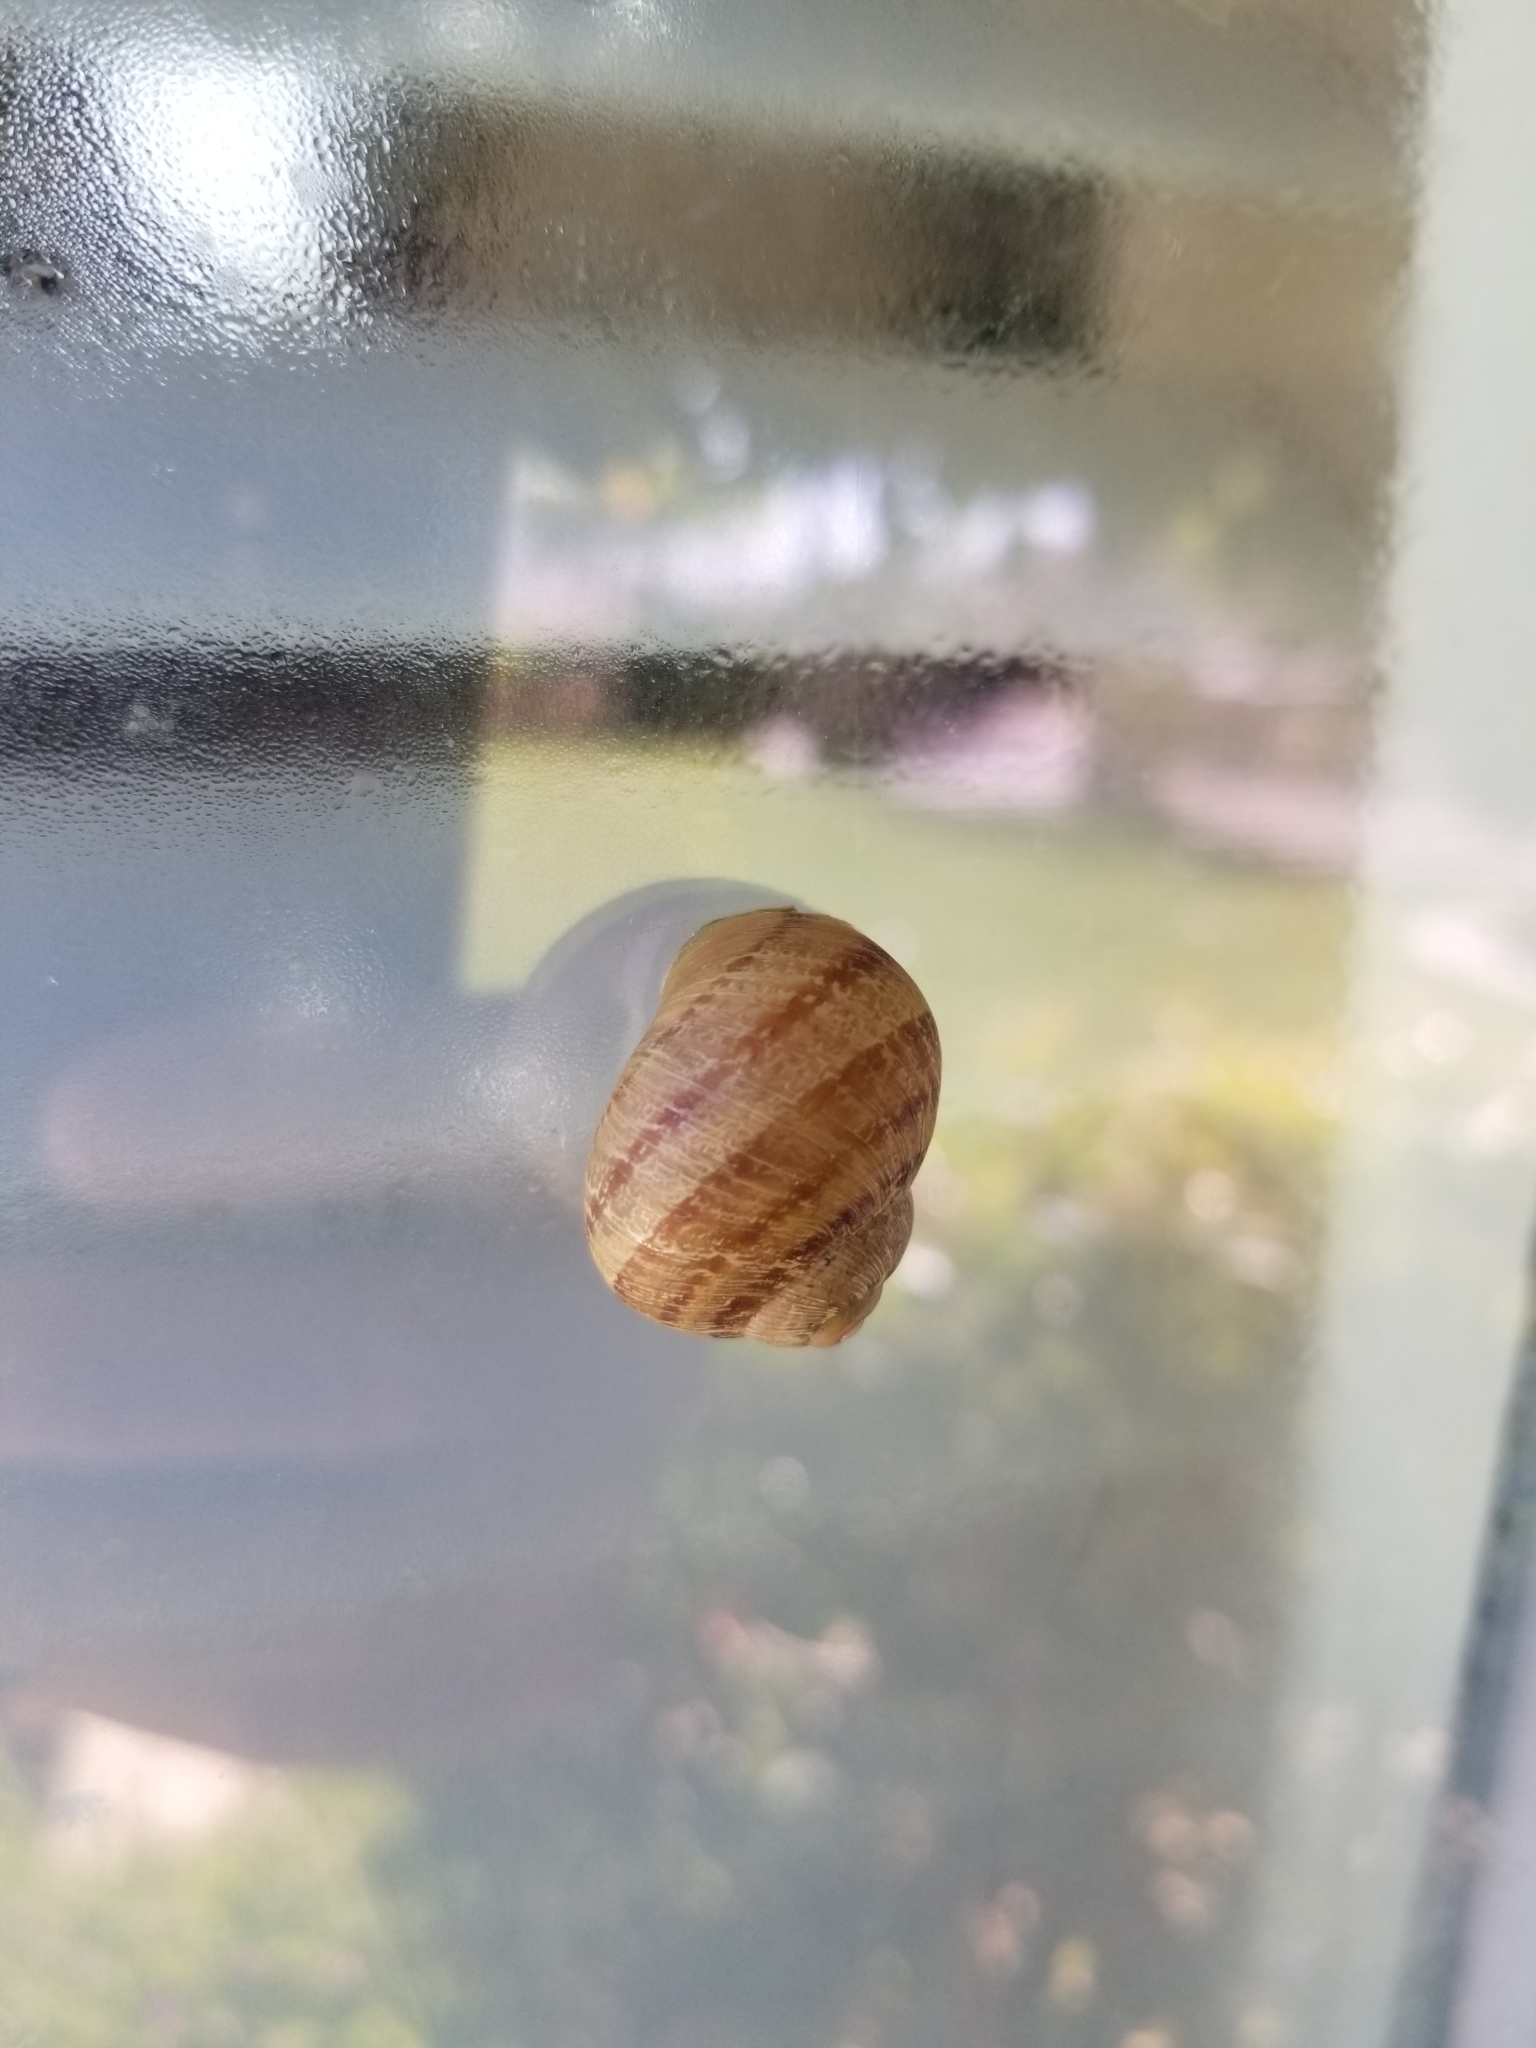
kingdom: Animalia
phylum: Mollusca
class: Gastropoda
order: Stylommatophora
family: Helicidae
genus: Cornu
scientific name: Cornu aspersum
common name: Brown garden snail
